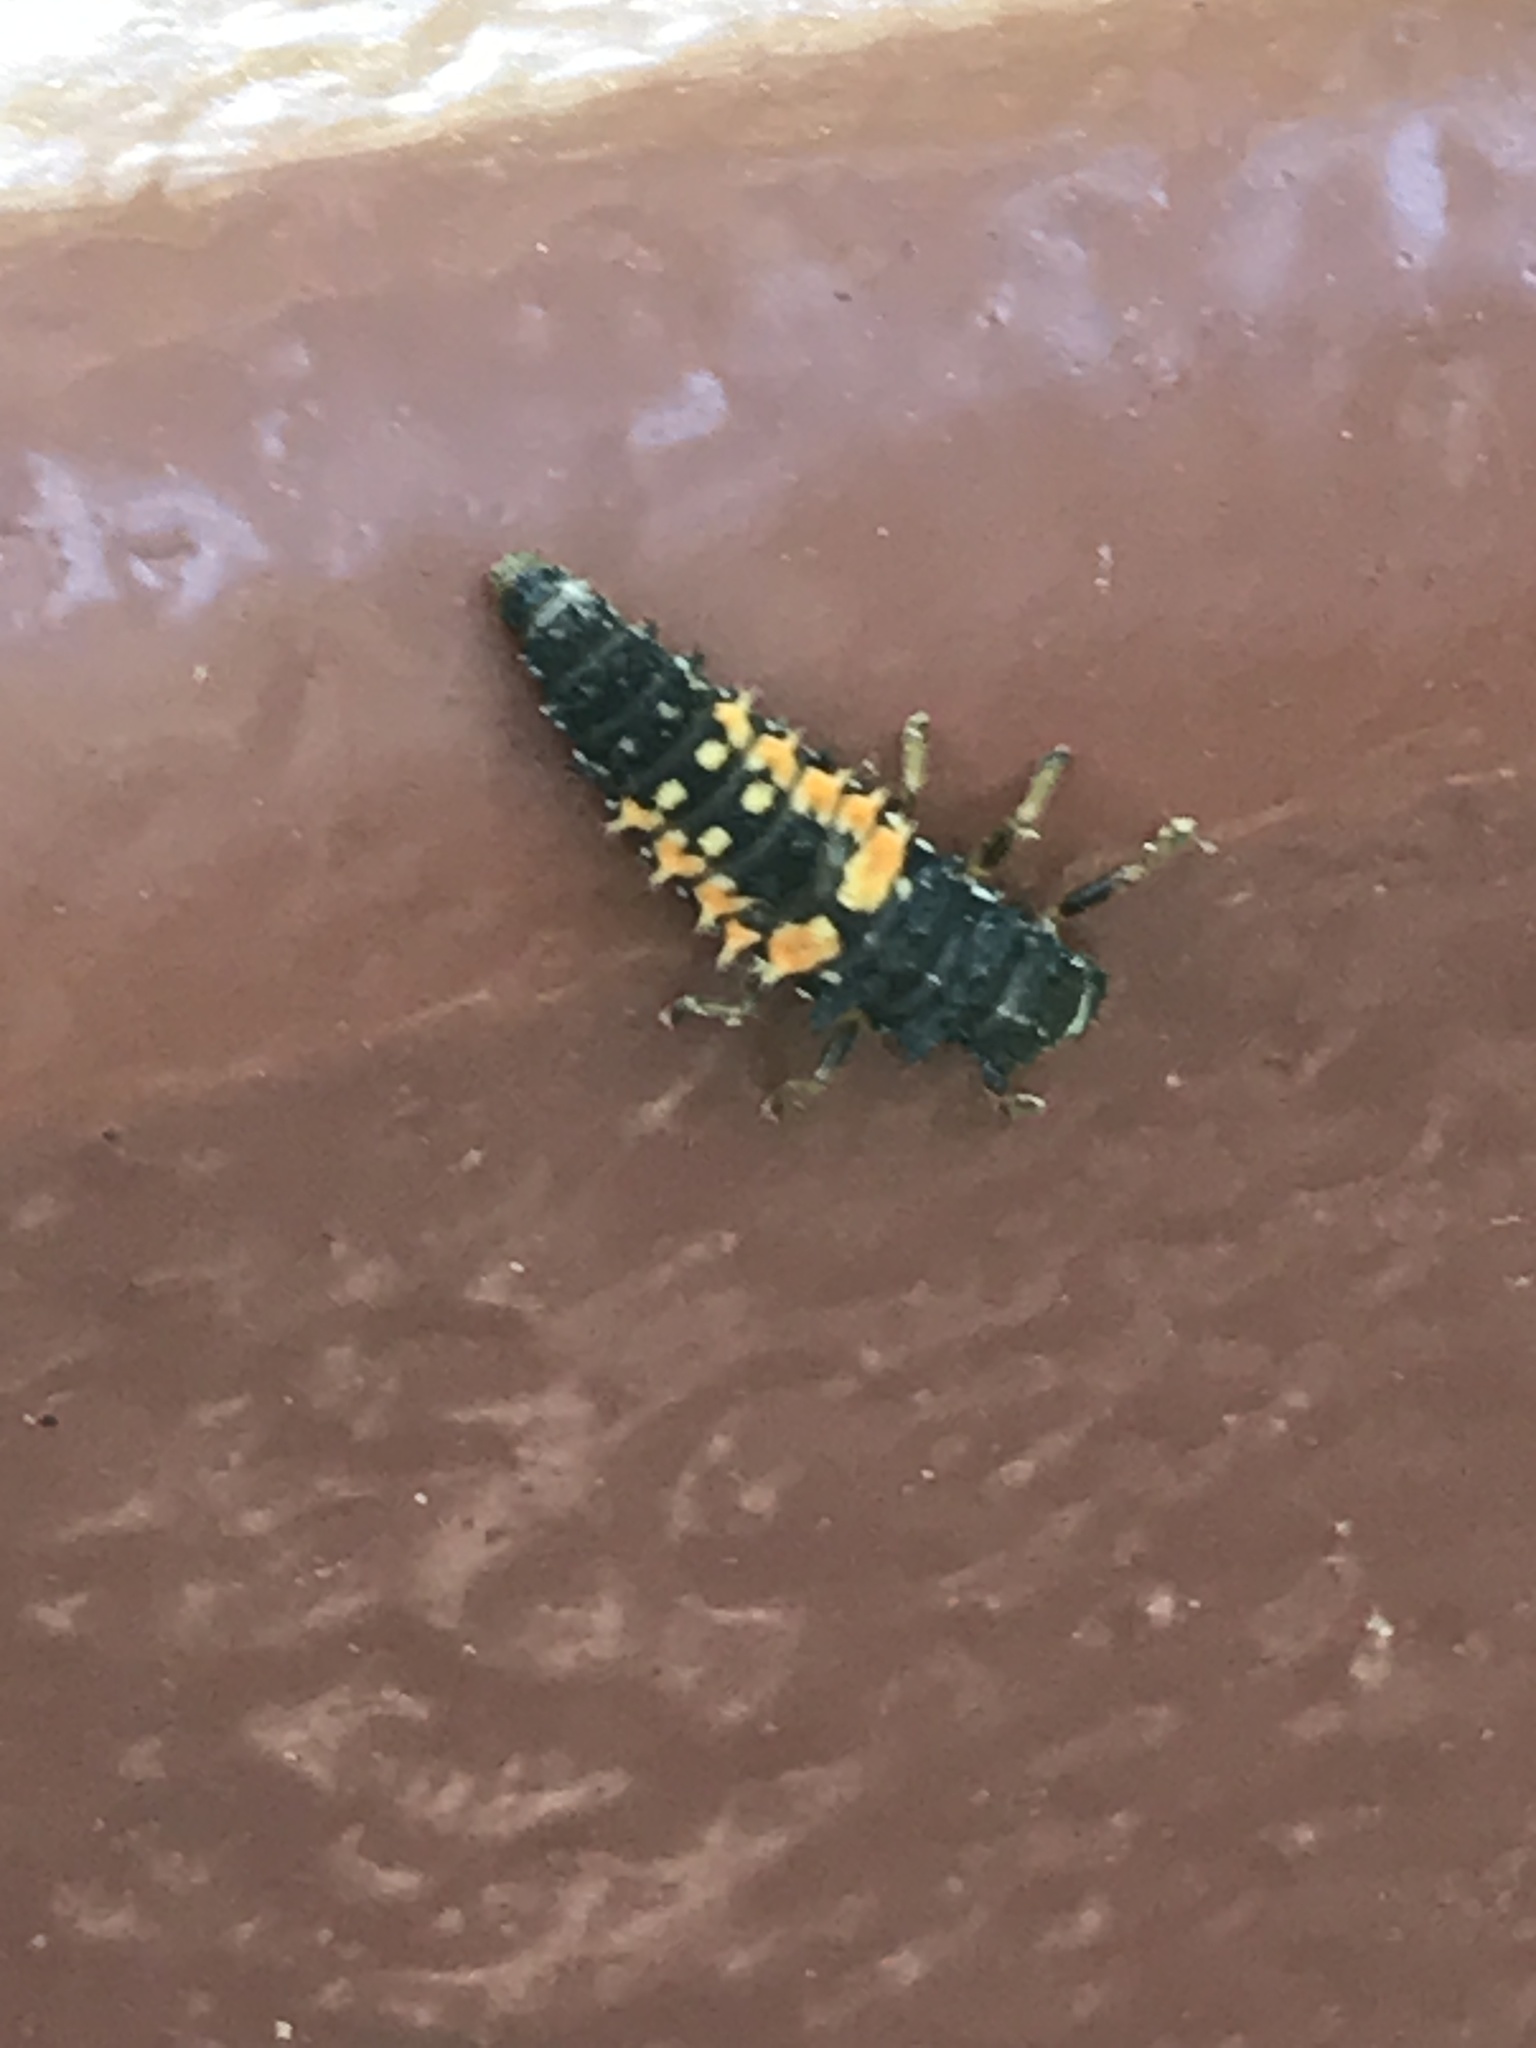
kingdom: Animalia
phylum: Arthropoda
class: Insecta
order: Coleoptera
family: Coccinellidae
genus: Harmonia
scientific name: Harmonia axyridis
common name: Harlequin ladybird
